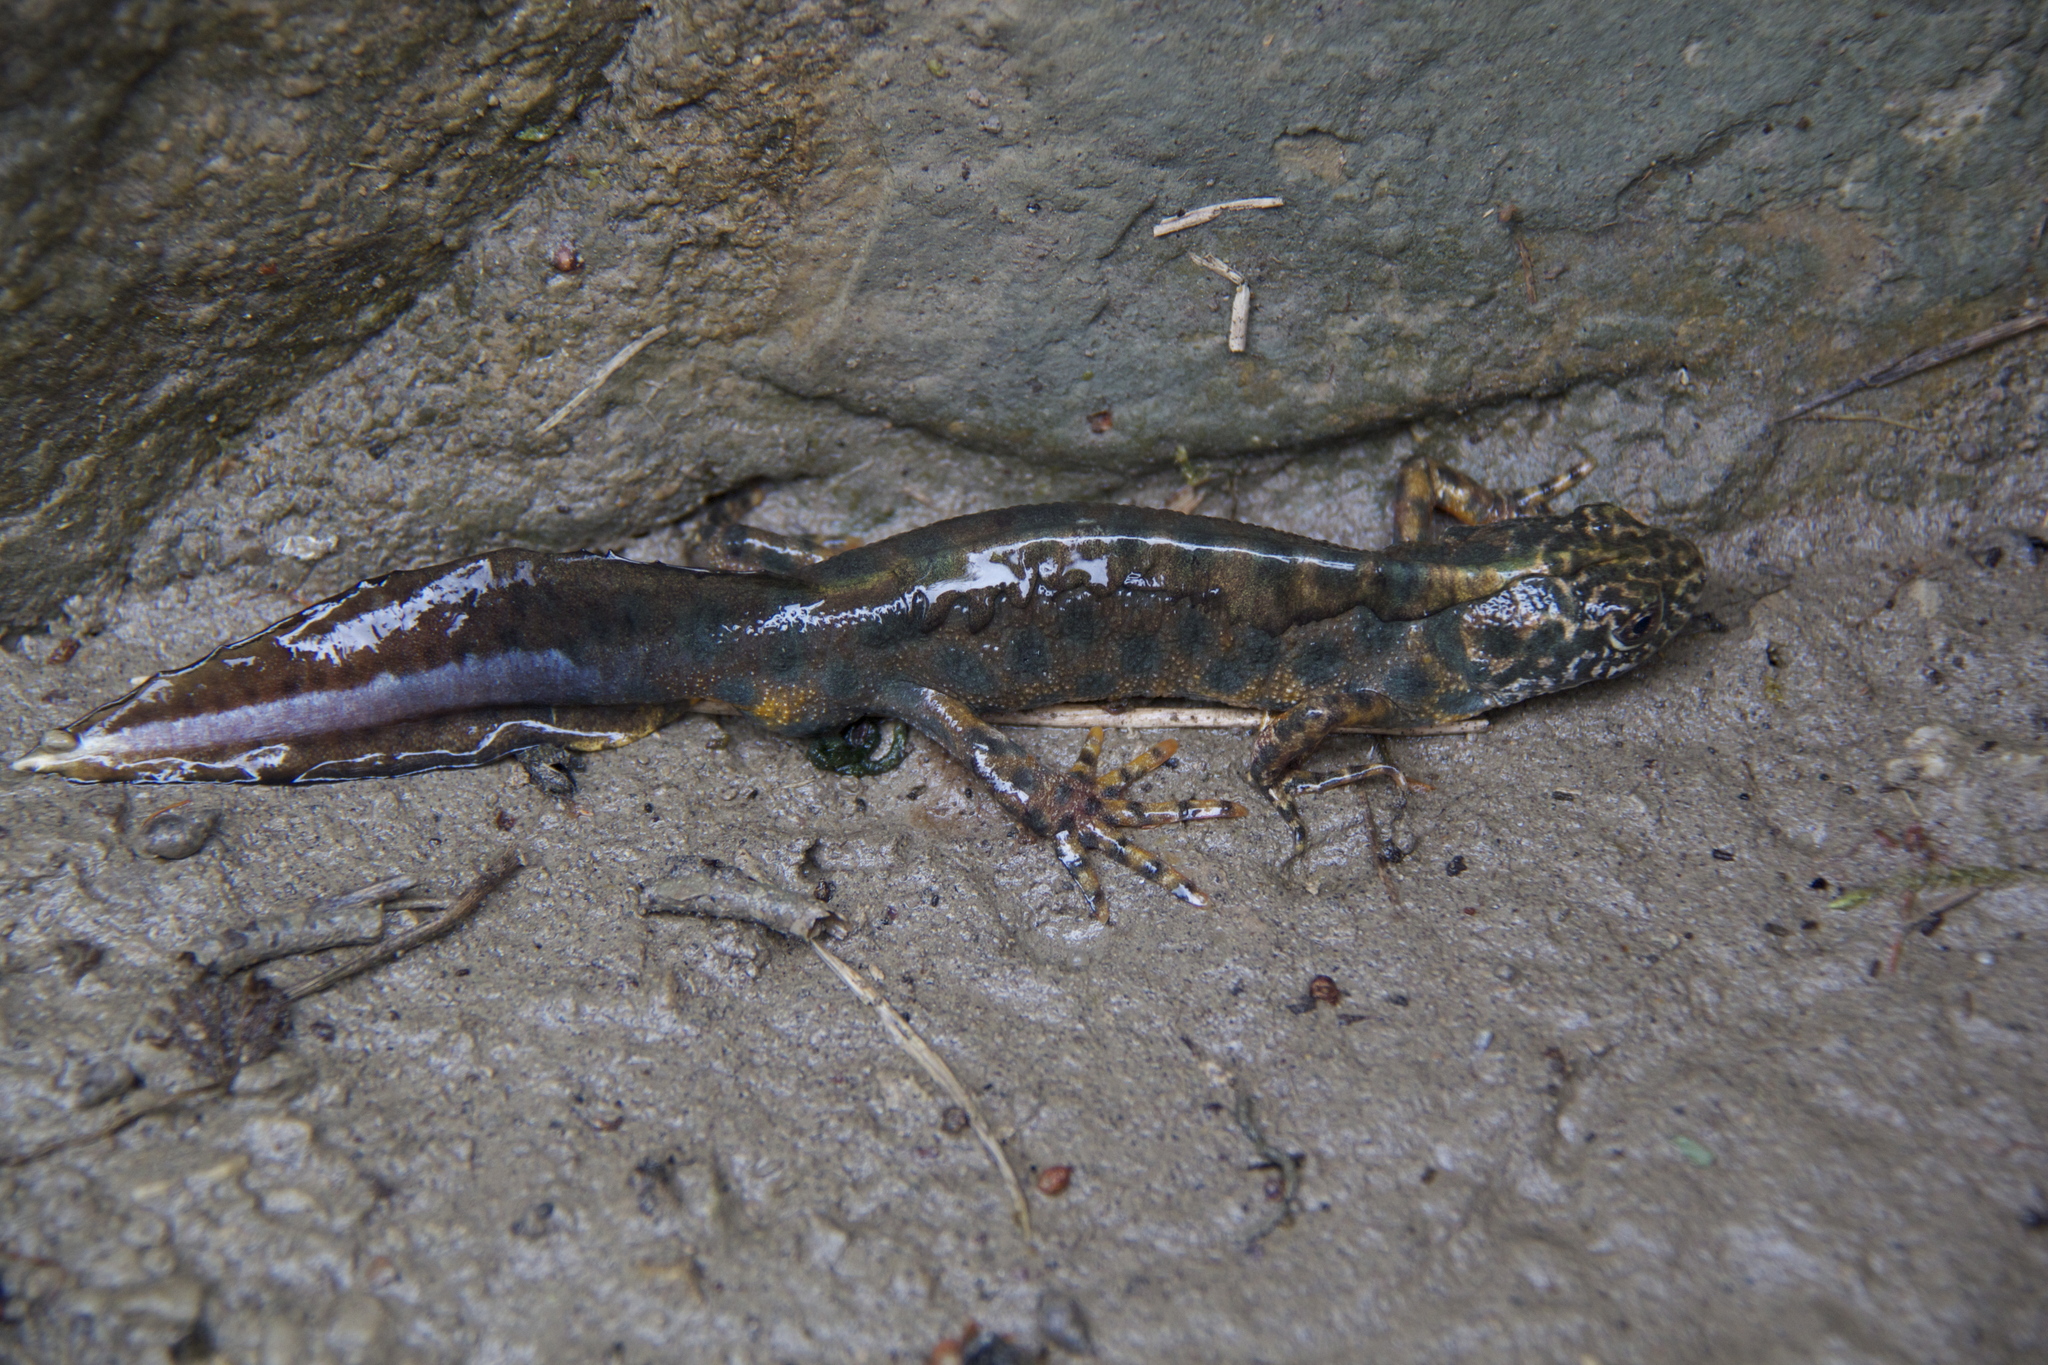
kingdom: Animalia
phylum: Chordata
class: Amphibia
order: Caudata
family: Salamandridae
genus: Triturus
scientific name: Triturus carnifex
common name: Italian crested newt
